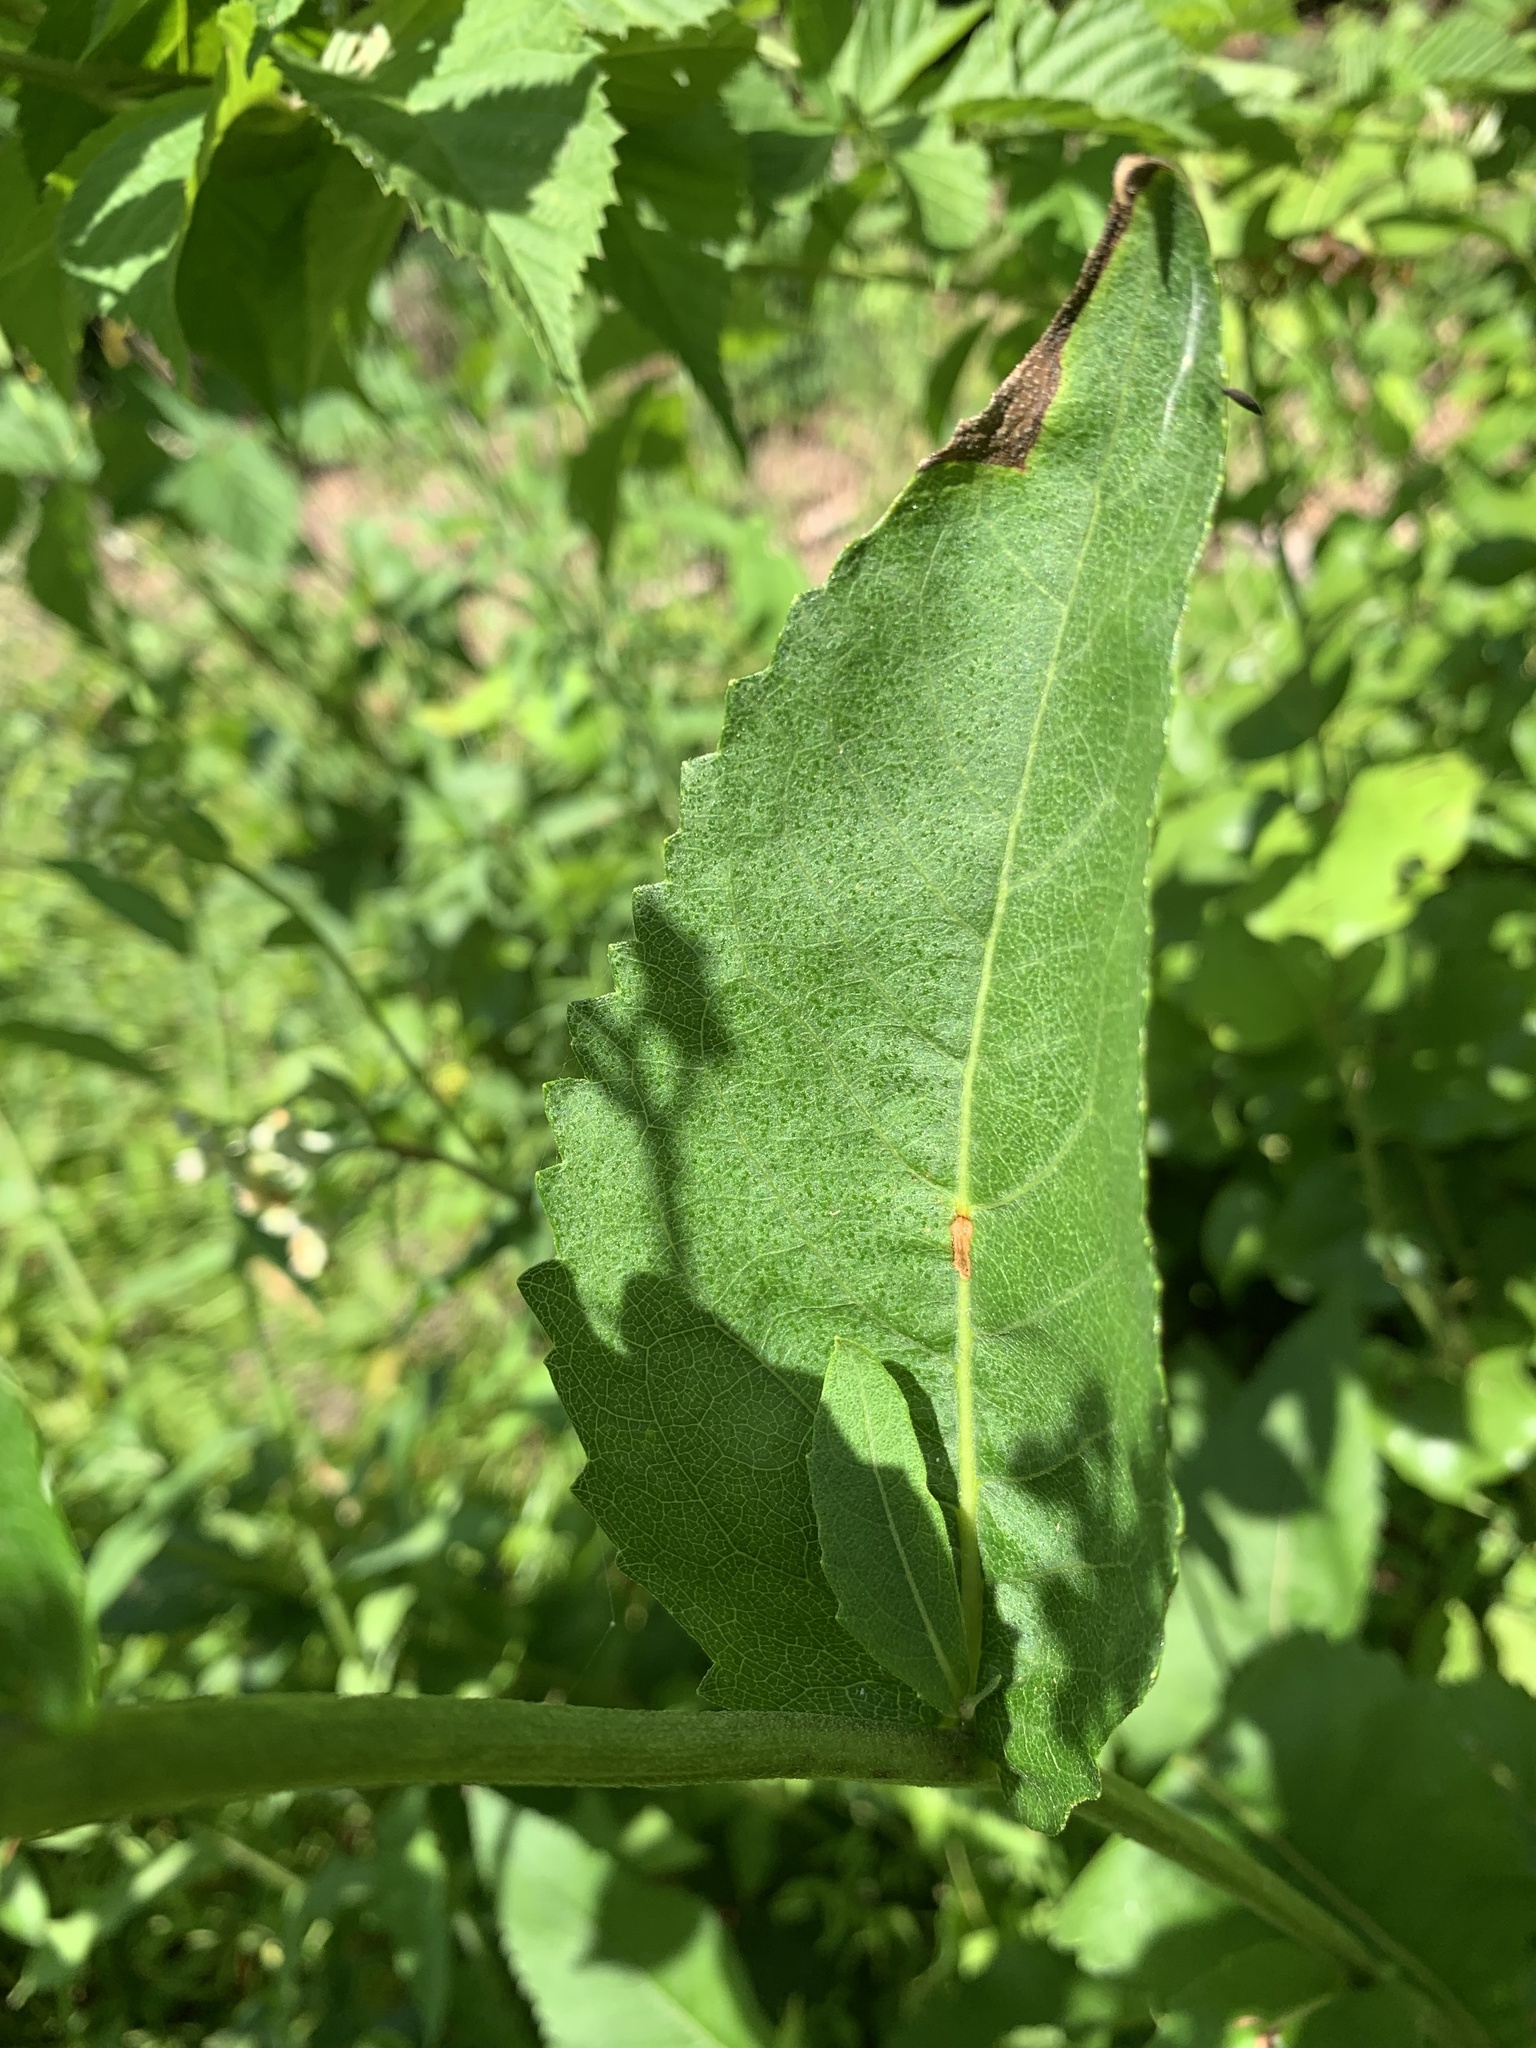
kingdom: Plantae
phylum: Tracheophyta
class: Magnoliopsida
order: Asterales
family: Asteraceae
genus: Parthenium
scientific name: Parthenium integrifolium
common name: American feverfew
